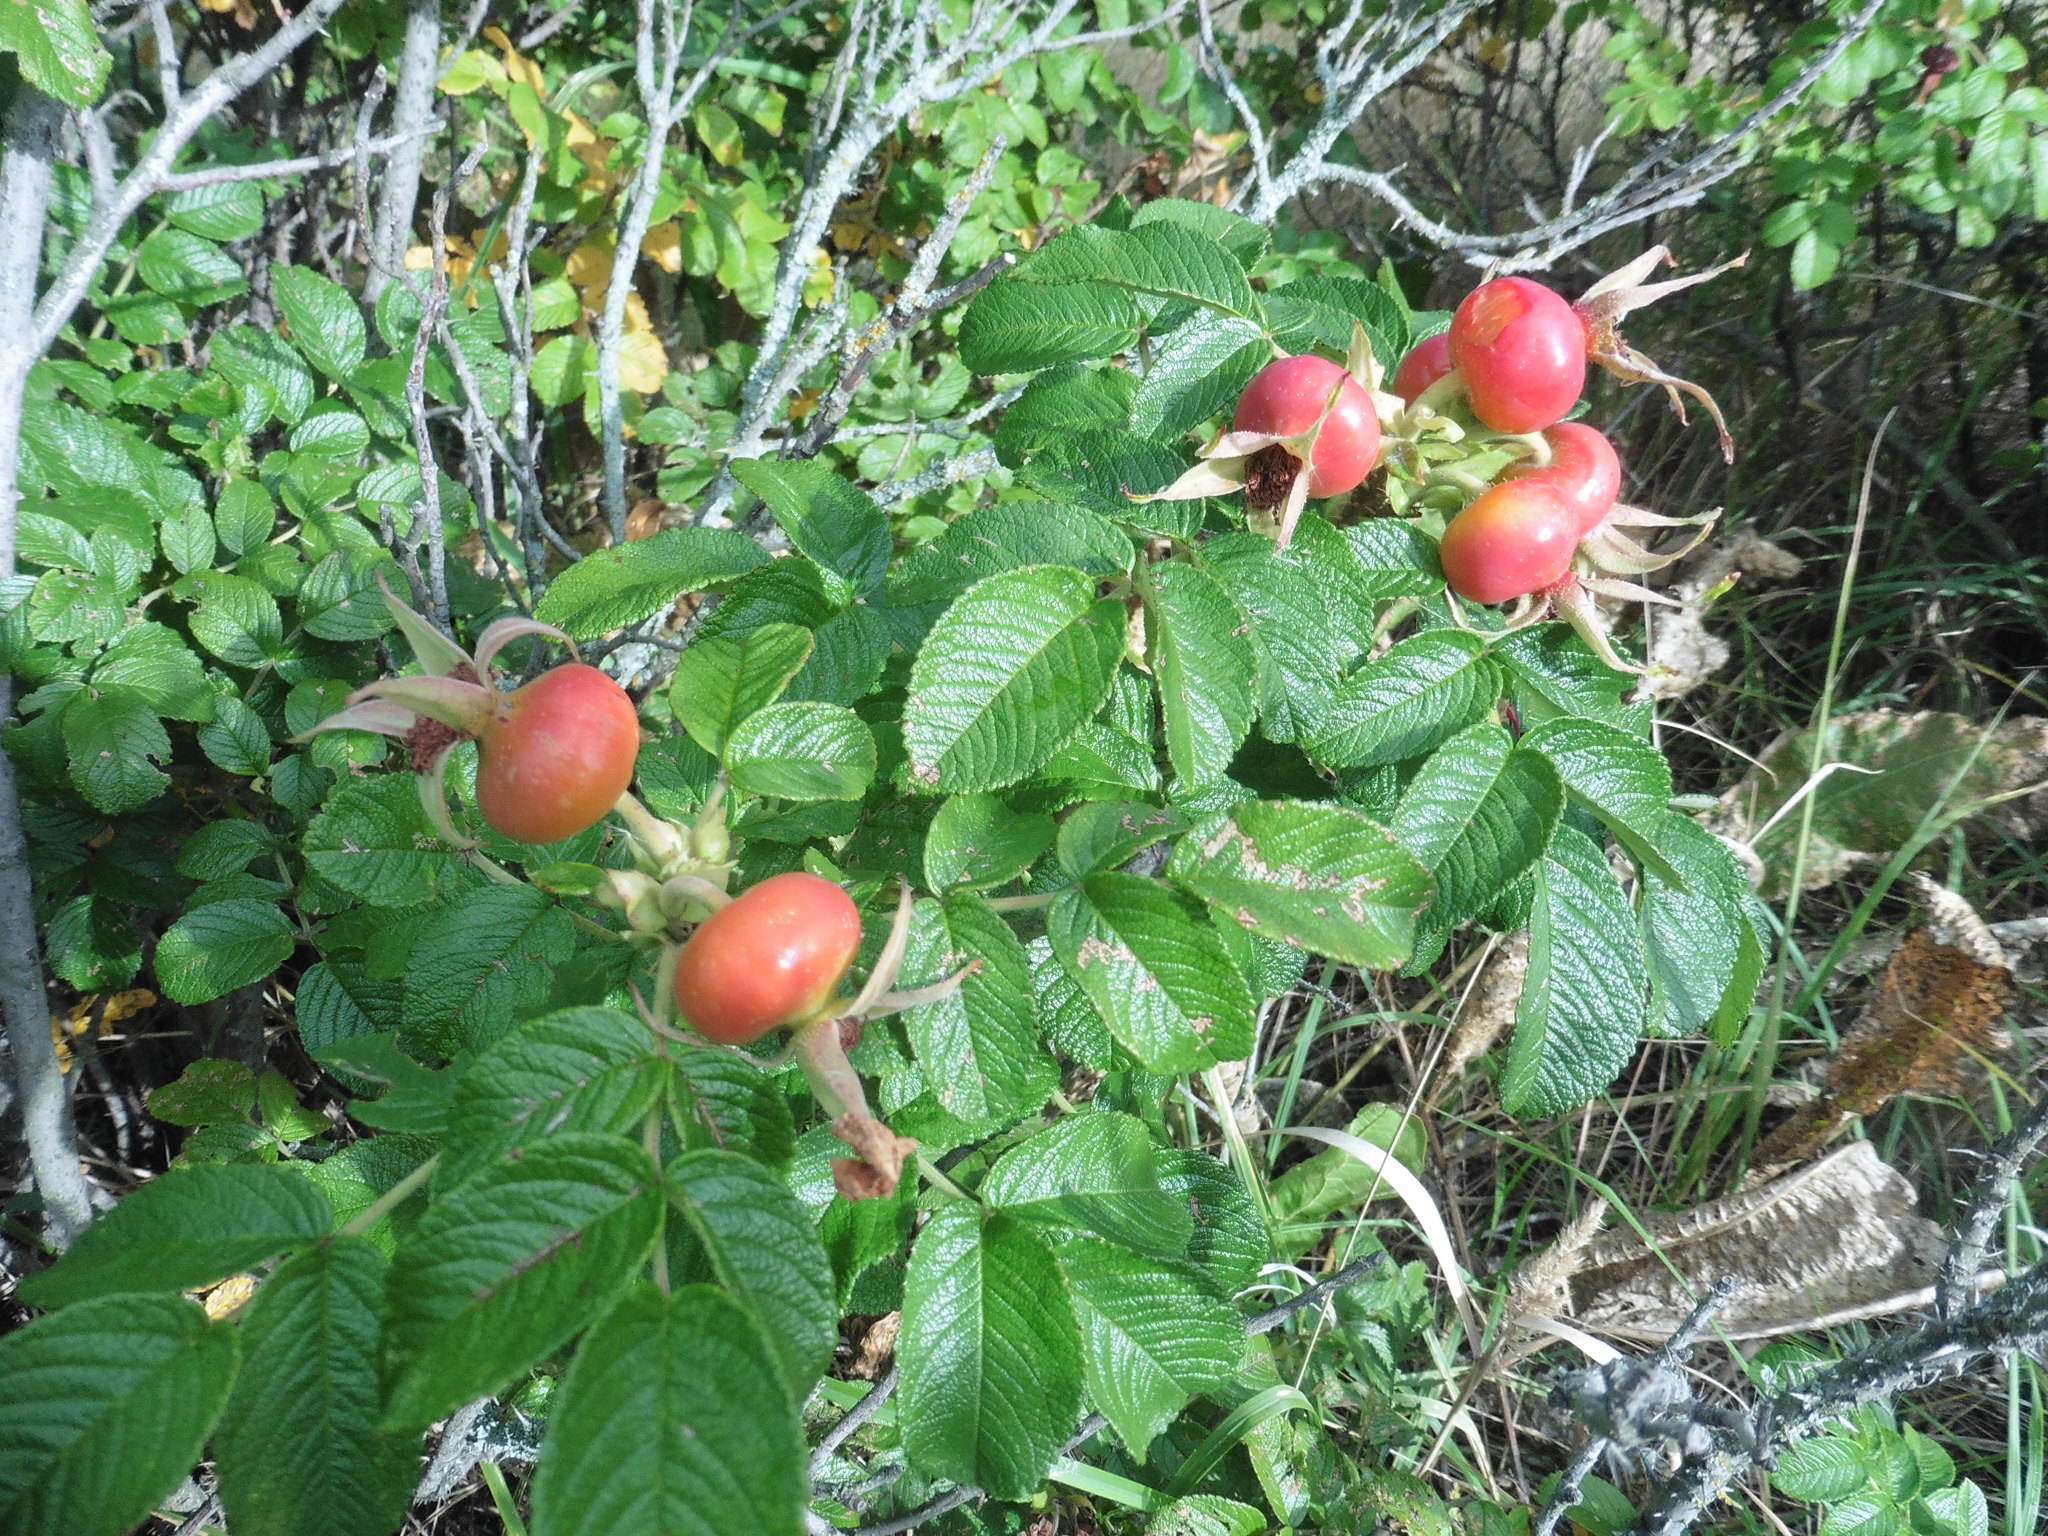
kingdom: Plantae
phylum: Tracheophyta
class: Magnoliopsida
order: Rosales
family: Rosaceae
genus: Rosa
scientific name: Rosa rugosa
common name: Japanese rose
